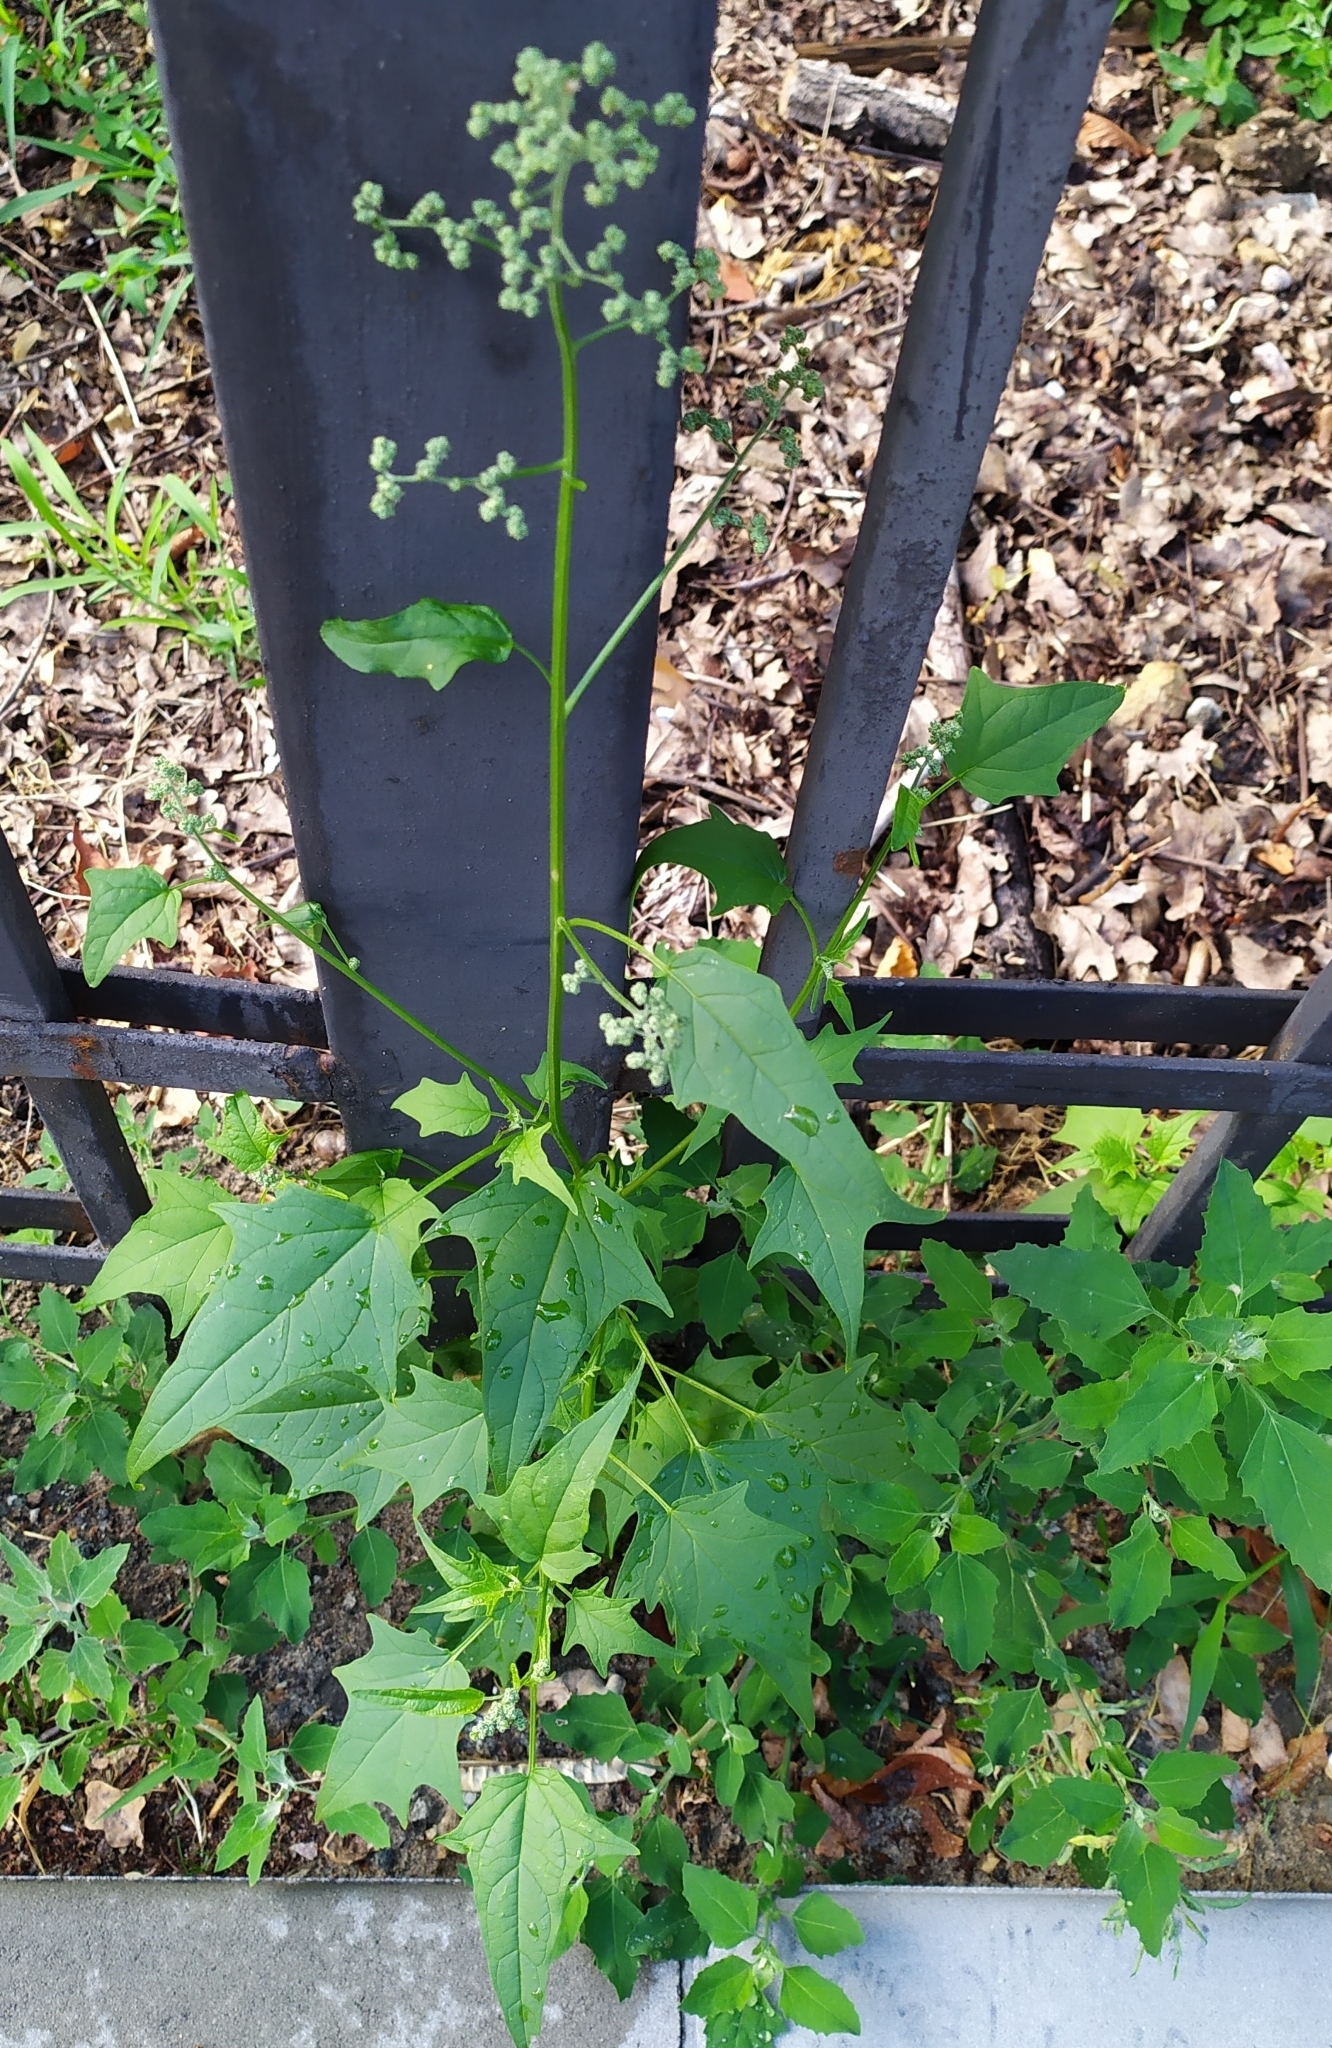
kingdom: Plantae
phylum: Tracheophyta
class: Magnoliopsida
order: Caryophyllales
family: Amaranthaceae
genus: Chenopodiastrum
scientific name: Chenopodiastrum hybridum
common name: Mapleleaf goosefoot
